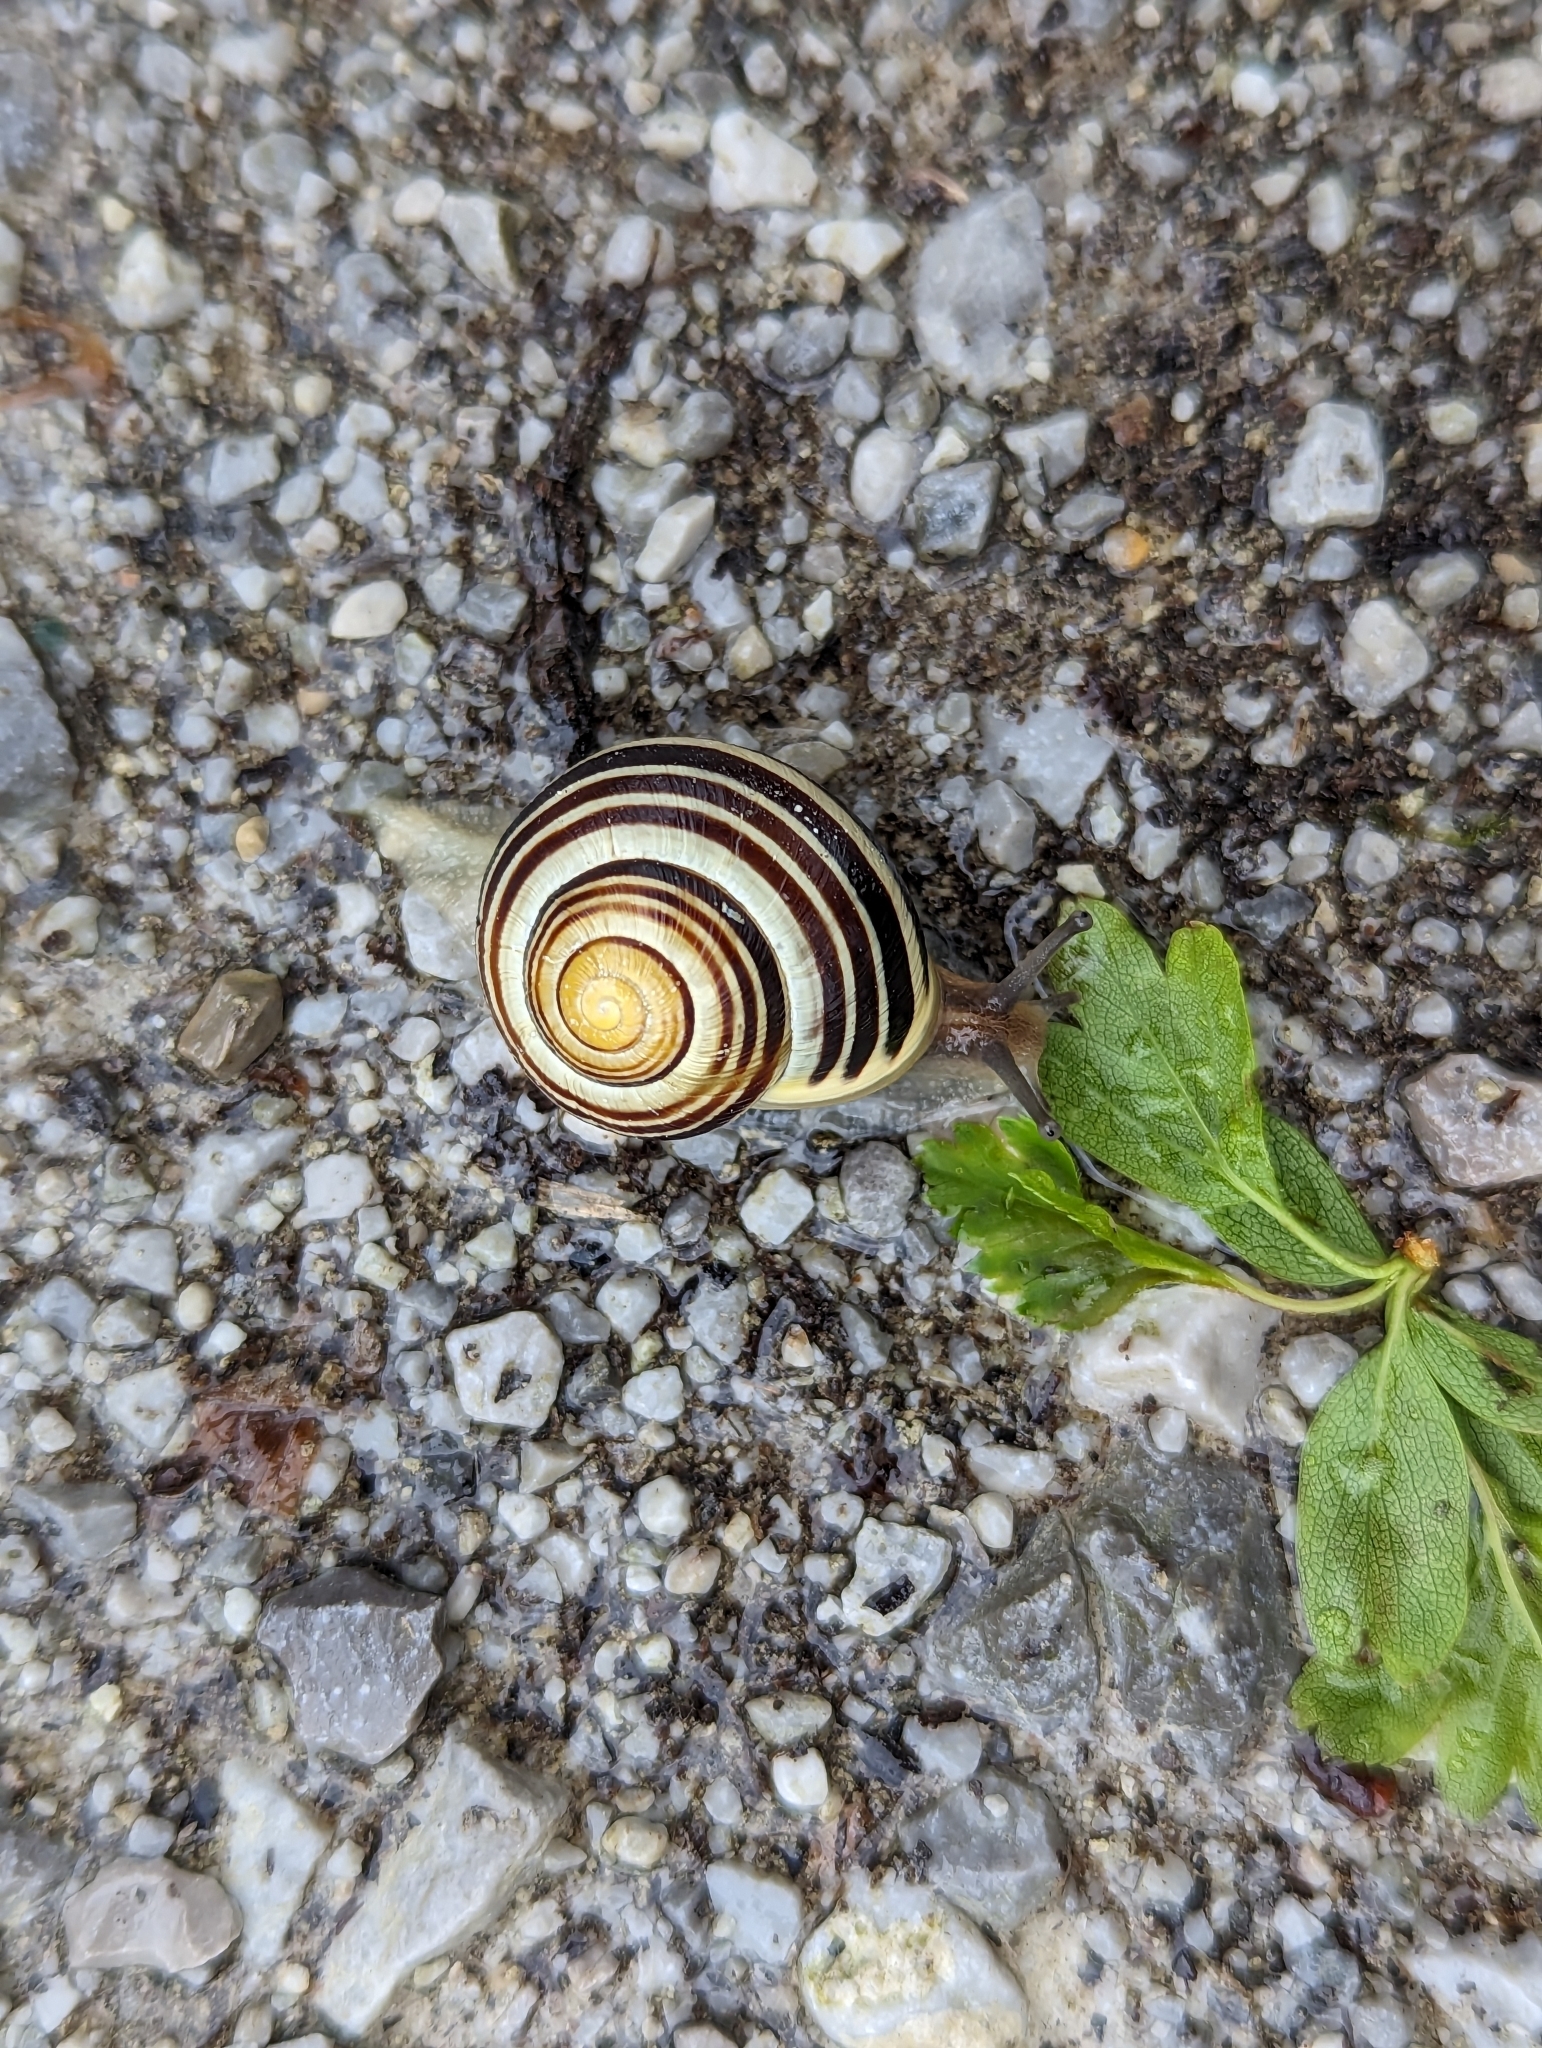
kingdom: Animalia
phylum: Mollusca
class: Gastropoda
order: Stylommatophora
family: Helicidae
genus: Cepaea
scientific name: Cepaea hortensis
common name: White-lip gardensnail
